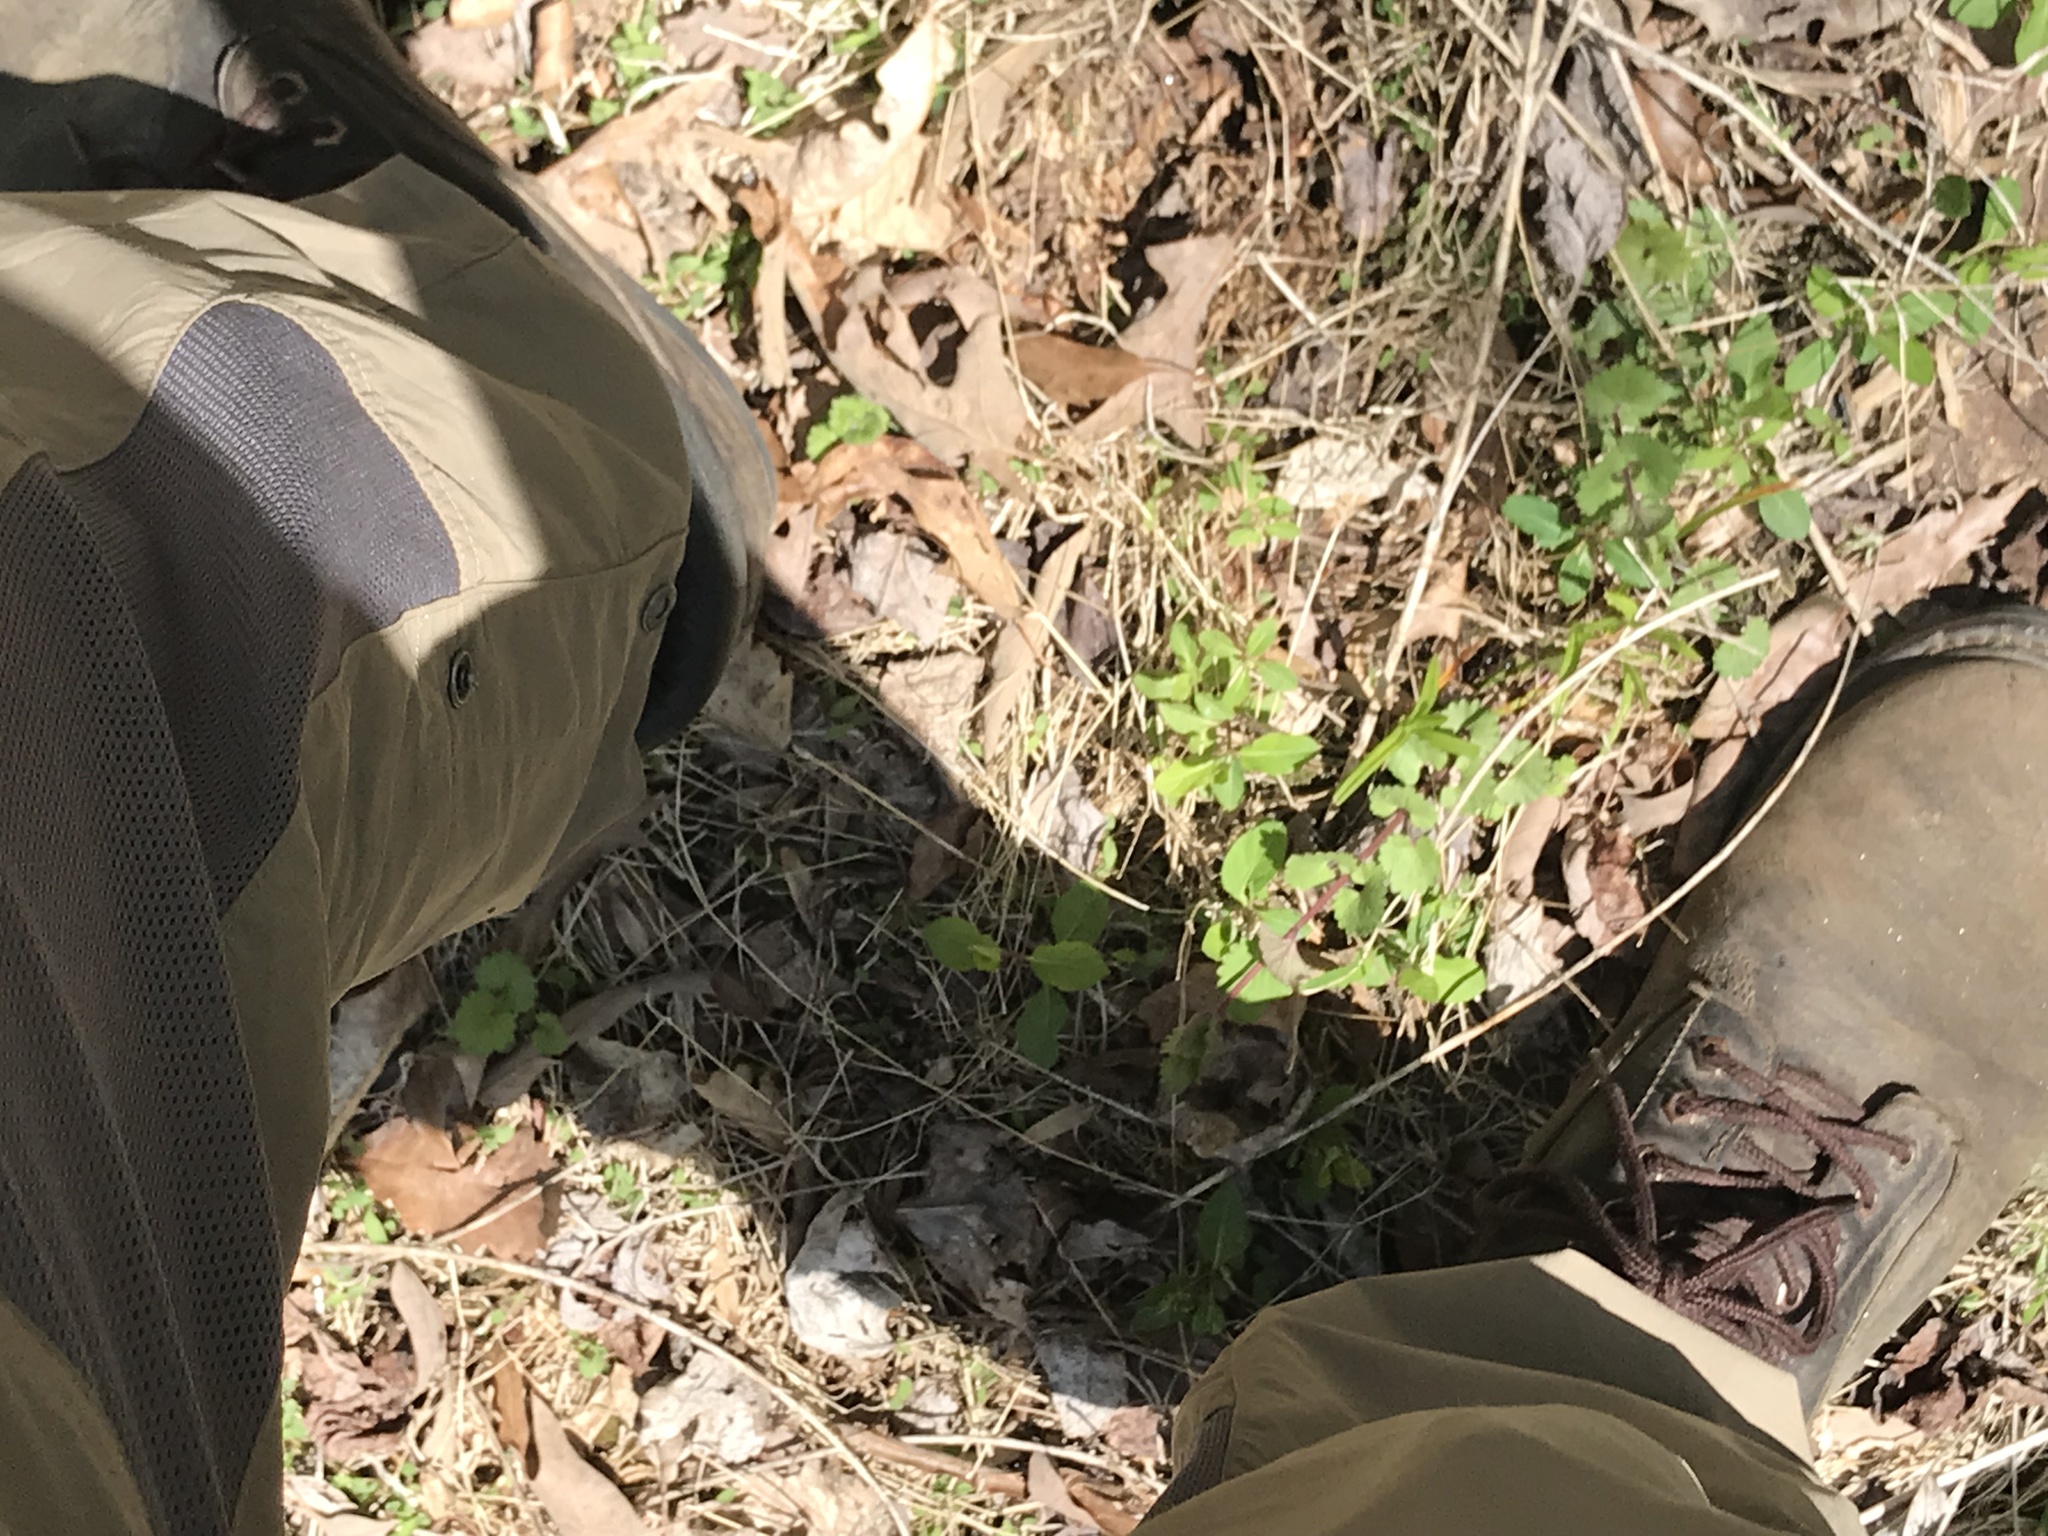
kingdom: Plantae
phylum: Tracheophyta
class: Magnoliopsida
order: Lamiales
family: Lamiaceae
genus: Glechoma
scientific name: Glechoma hederacea
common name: Ground ivy
